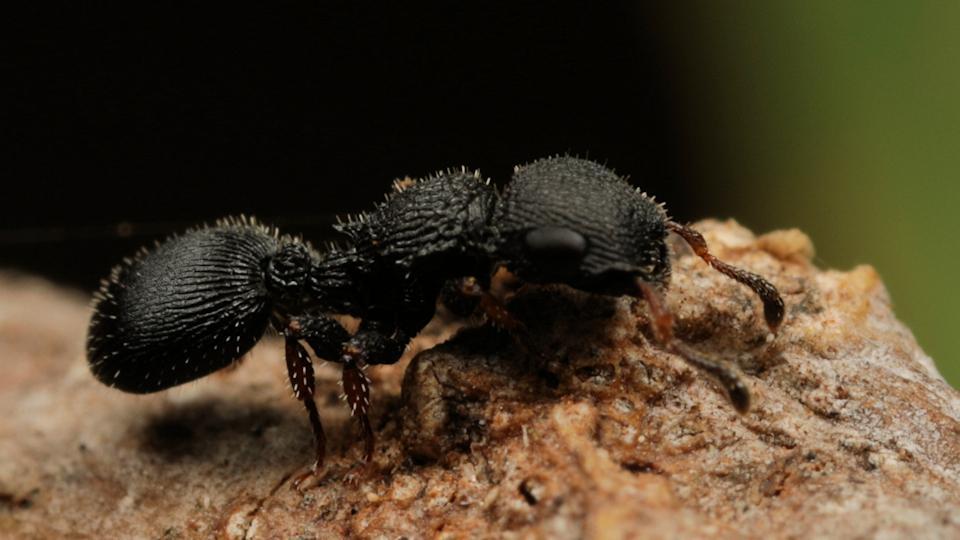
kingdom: Animalia
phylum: Arthropoda
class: Insecta
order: Hymenoptera
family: Formicidae
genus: Cataulacus
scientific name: Cataulacus wissmannii
